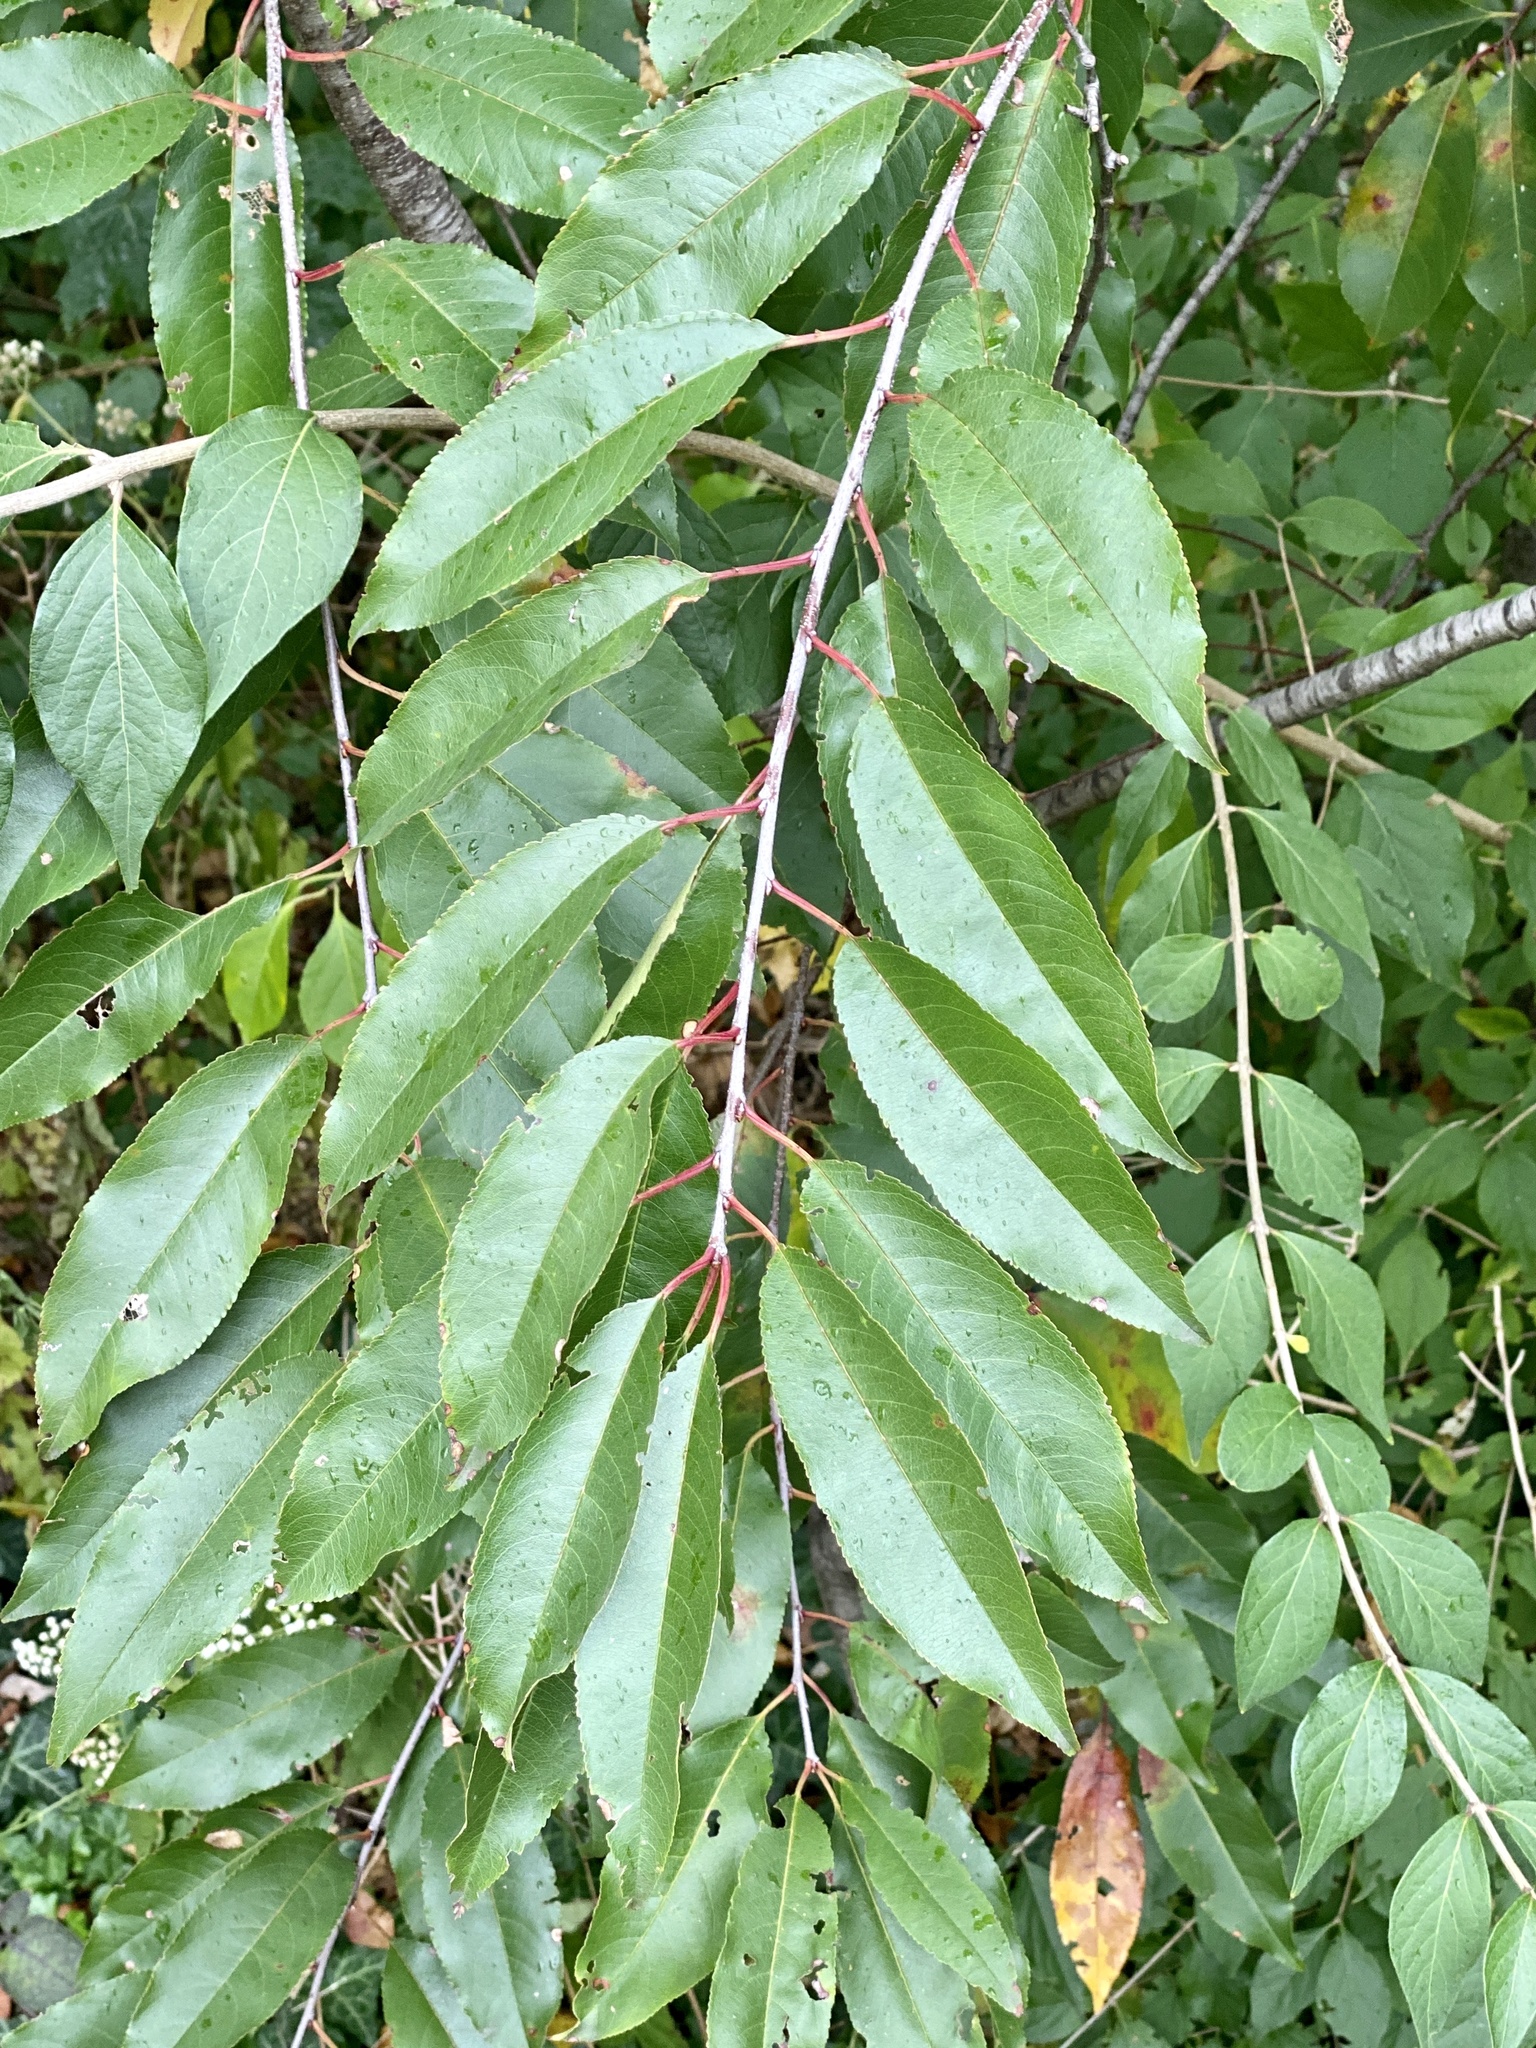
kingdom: Plantae
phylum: Tracheophyta
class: Magnoliopsida
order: Rosales
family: Rosaceae
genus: Prunus
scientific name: Prunus serotina
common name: Black cherry
